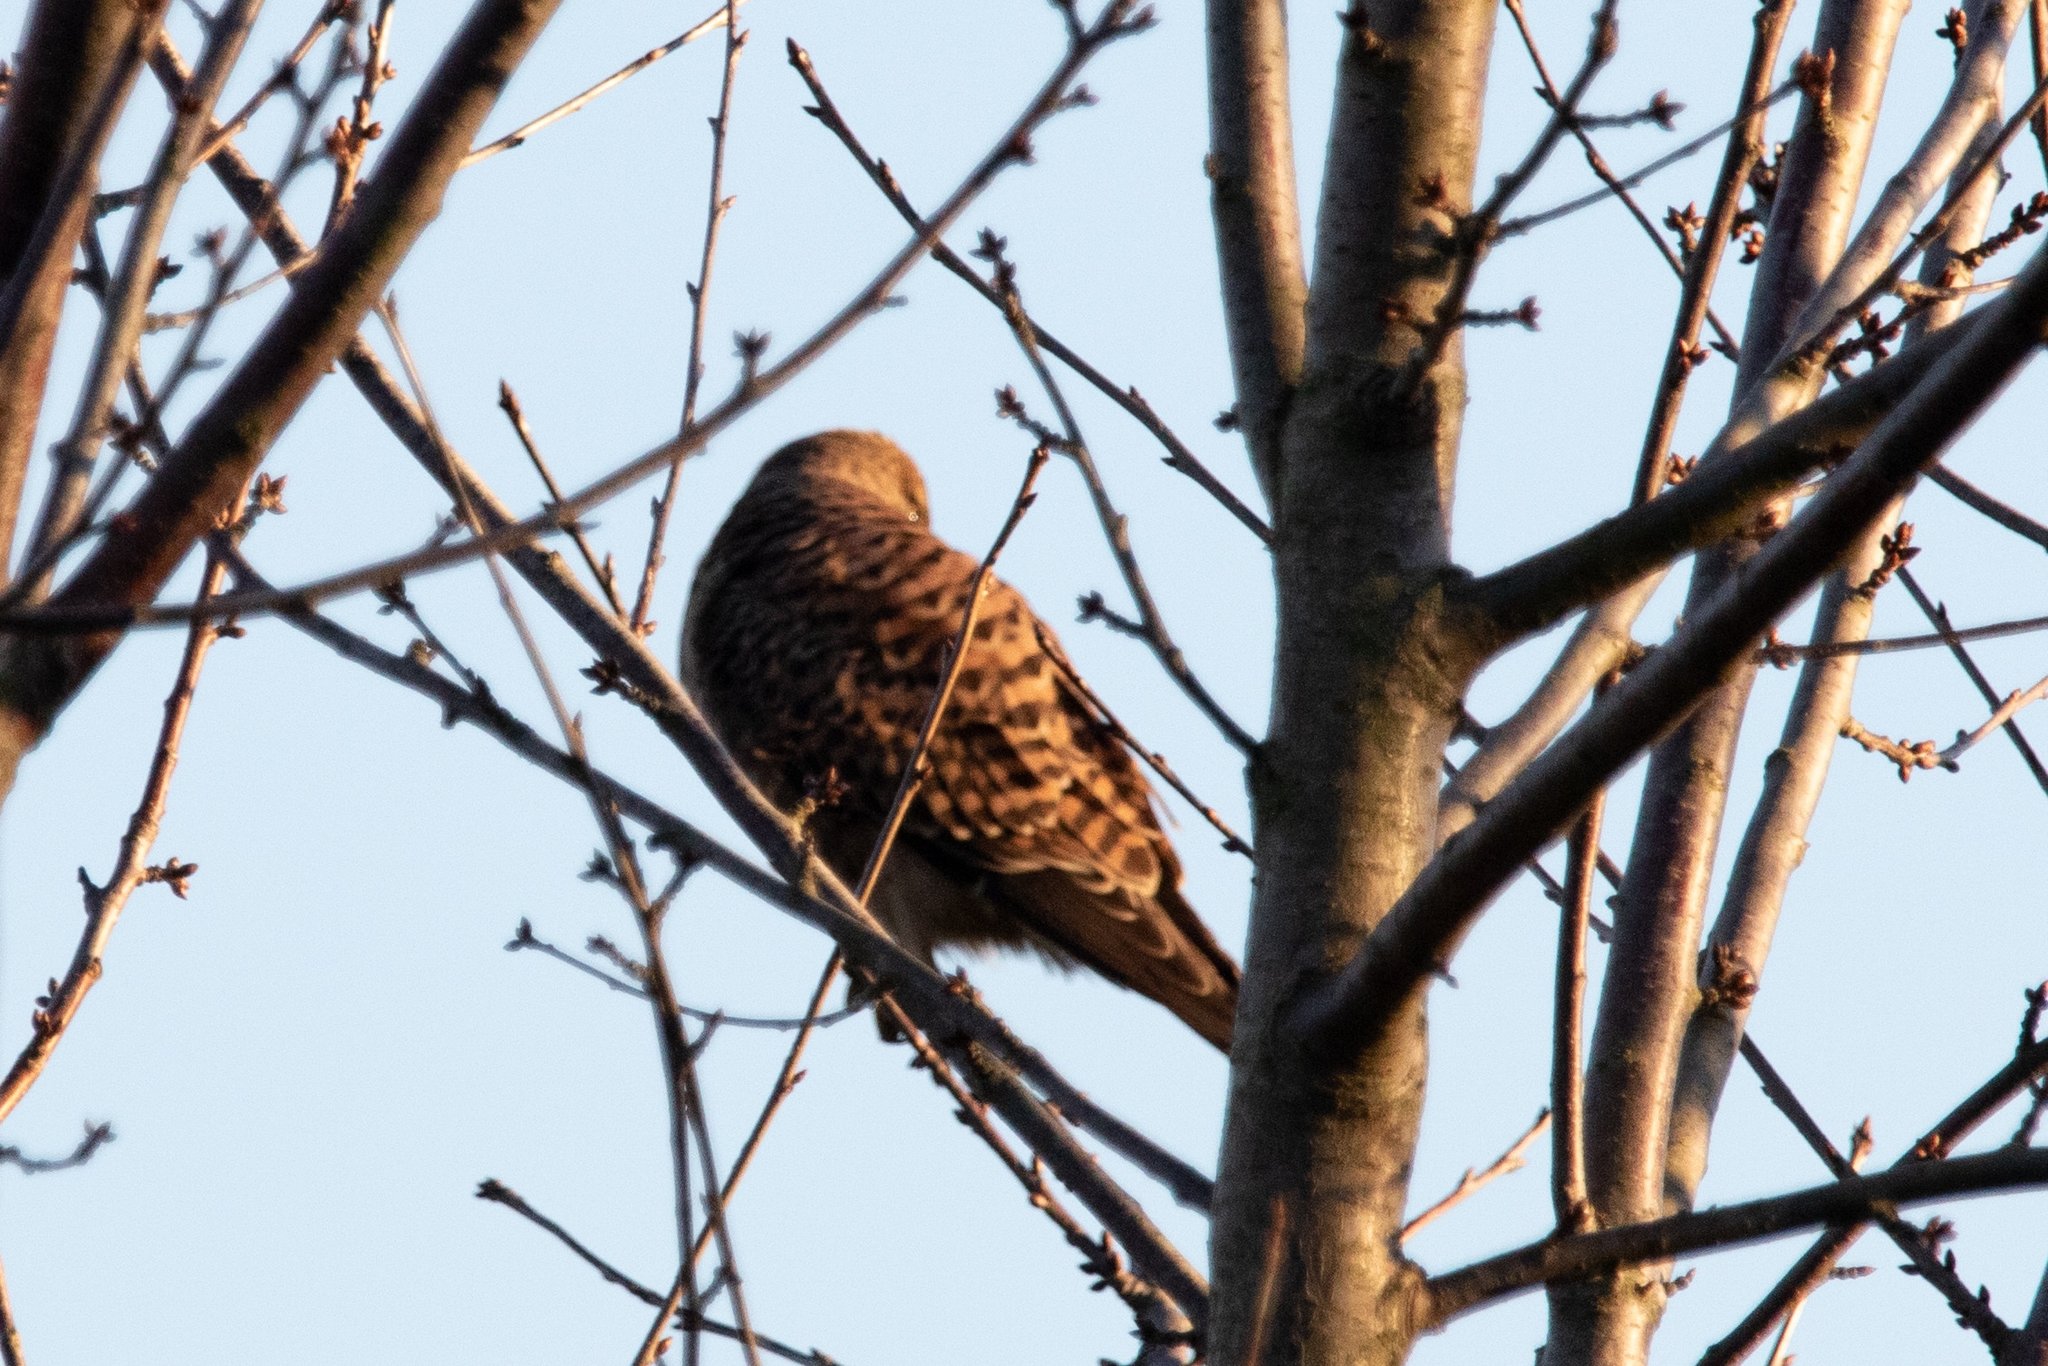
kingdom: Animalia
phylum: Chordata
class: Aves
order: Falconiformes
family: Falconidae
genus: Falco
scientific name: Falco tinnunculus
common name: Common kestrel
